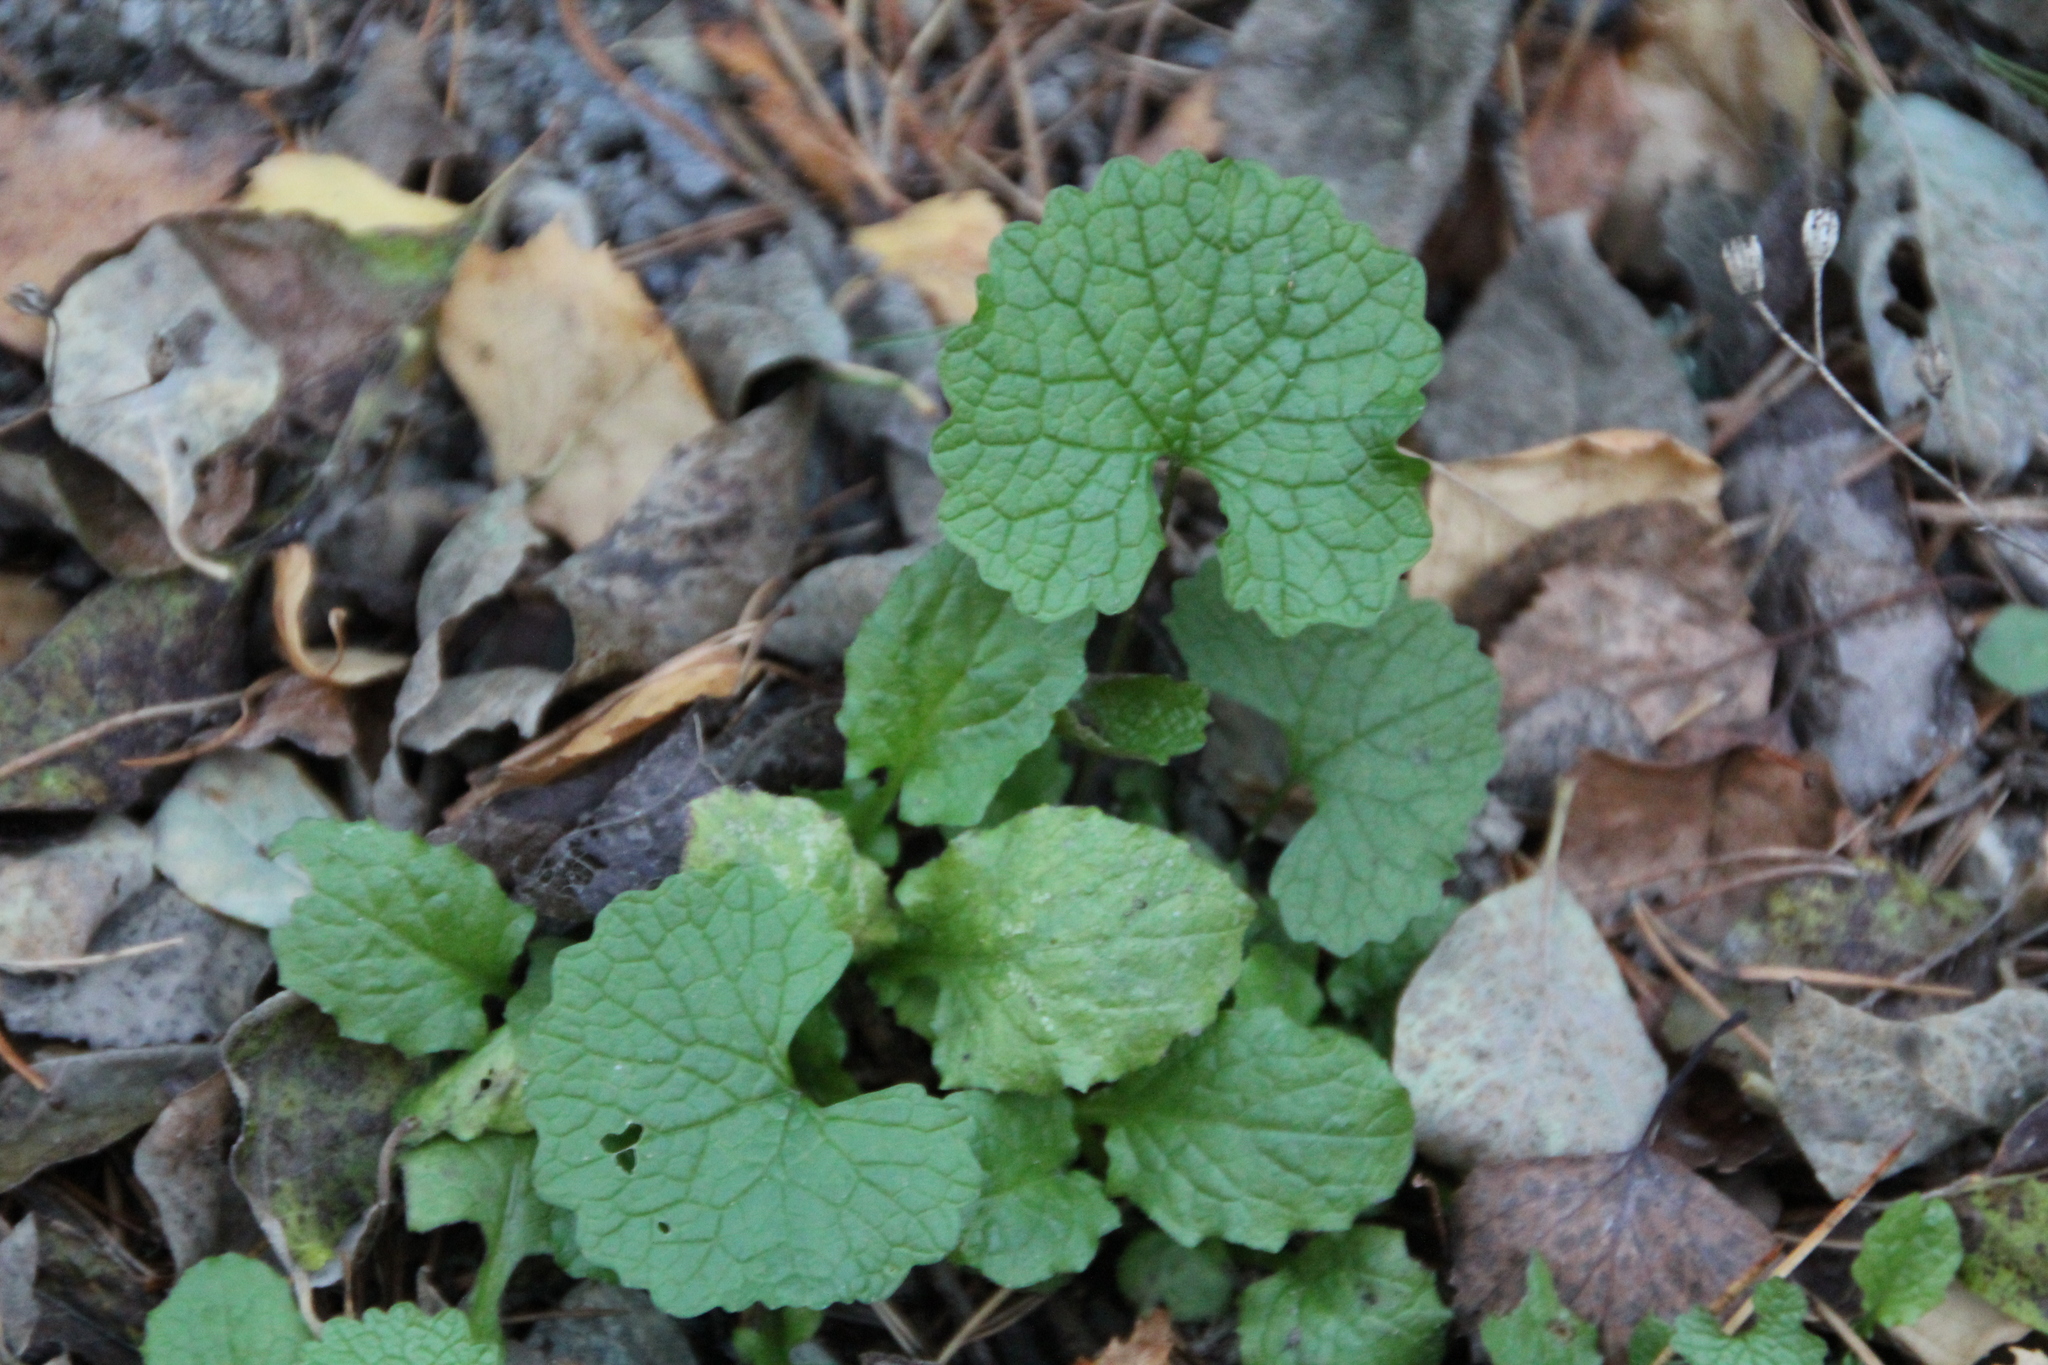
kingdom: Plantae
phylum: Tracheophyta
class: Magnoliopsida
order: Brassicales
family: Brassicaceae
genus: Alliaria
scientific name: Alliaria petiolata
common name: Garlic mustard
